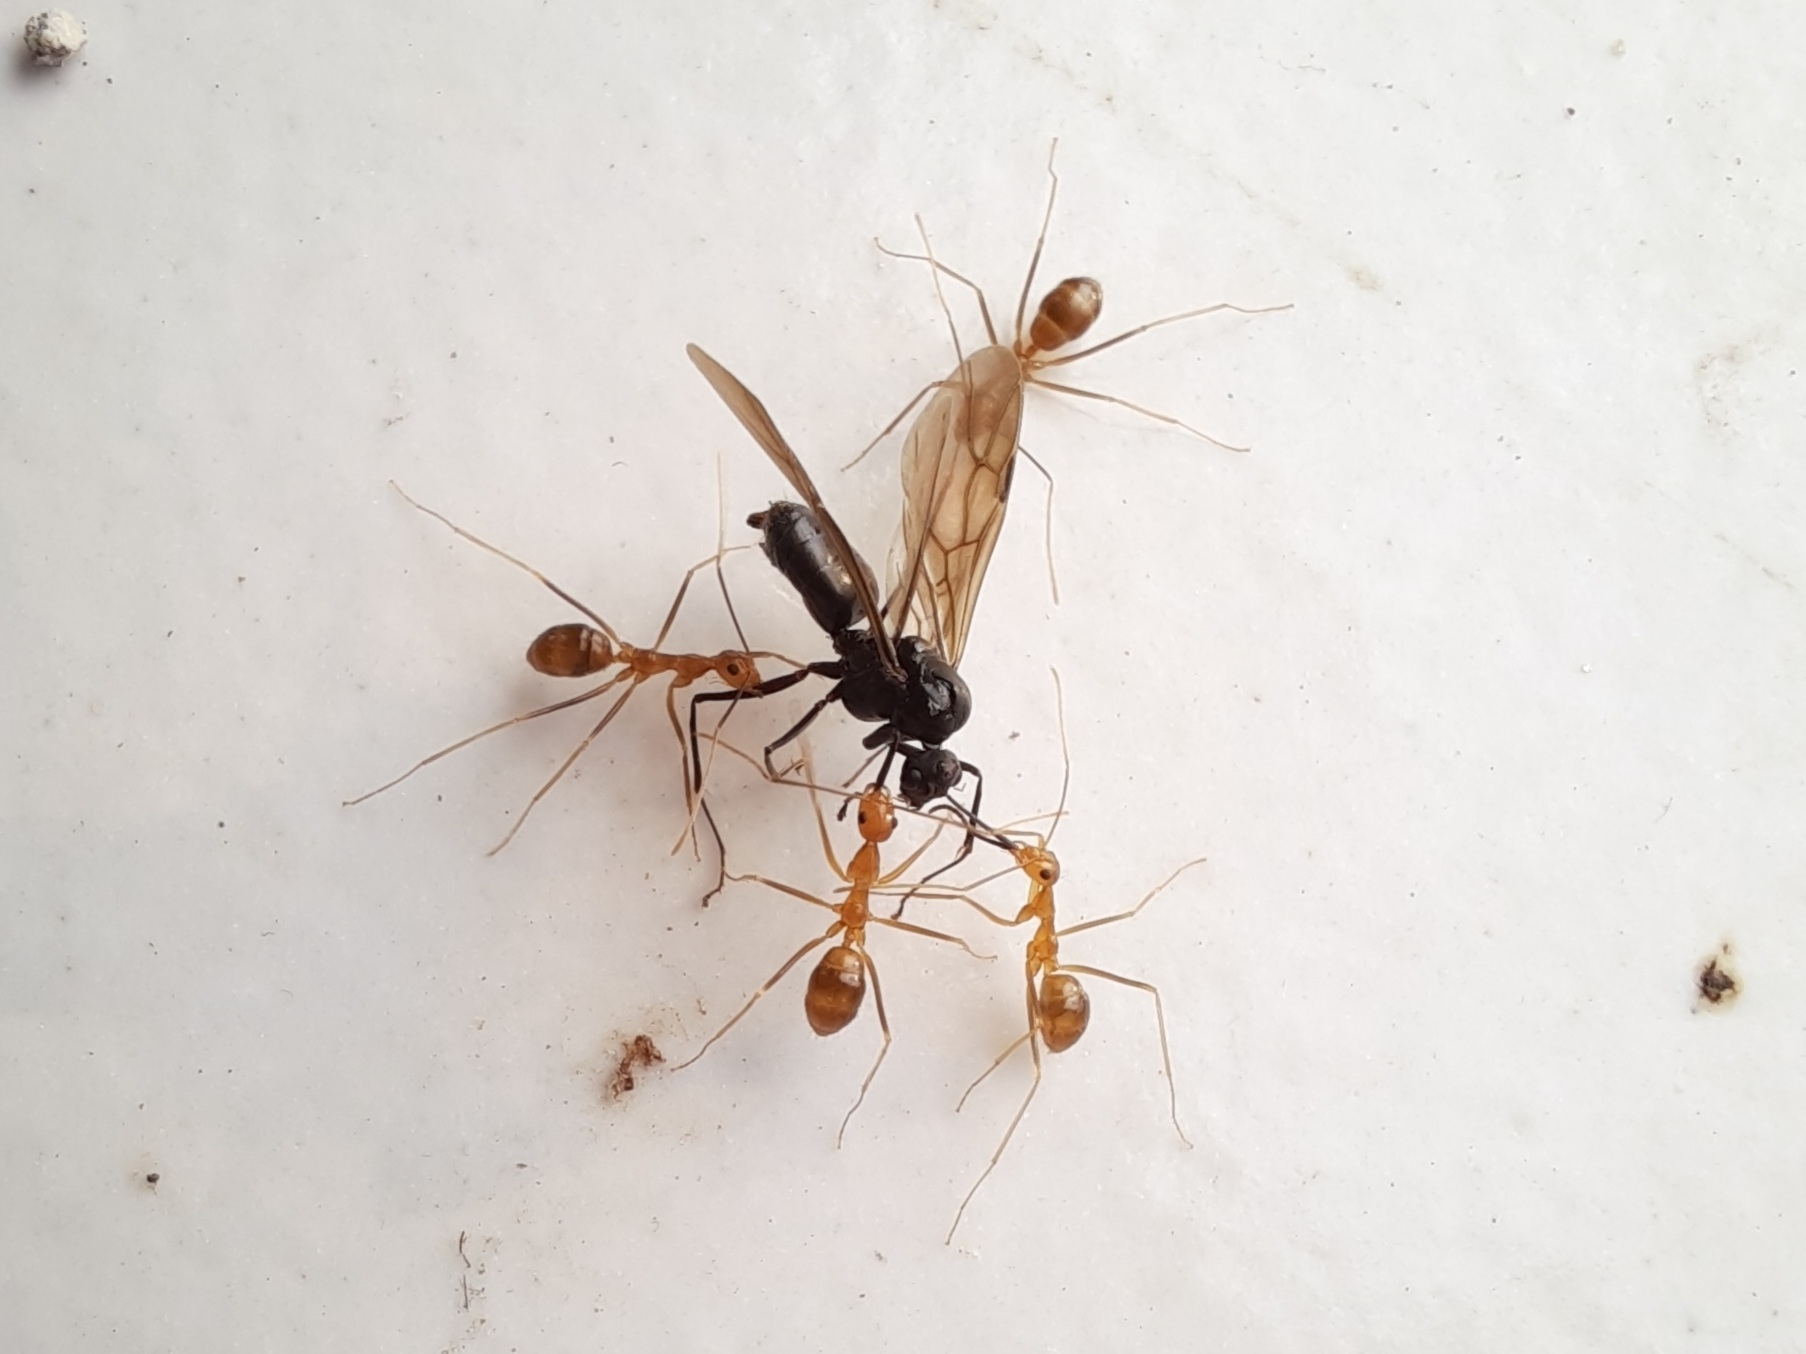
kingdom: Animalia
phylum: Arthropoda
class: Insecta
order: Hymenoptera
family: Formicidae
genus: Anoplolepis
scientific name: Anoplolepis gracilipes
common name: Ant
